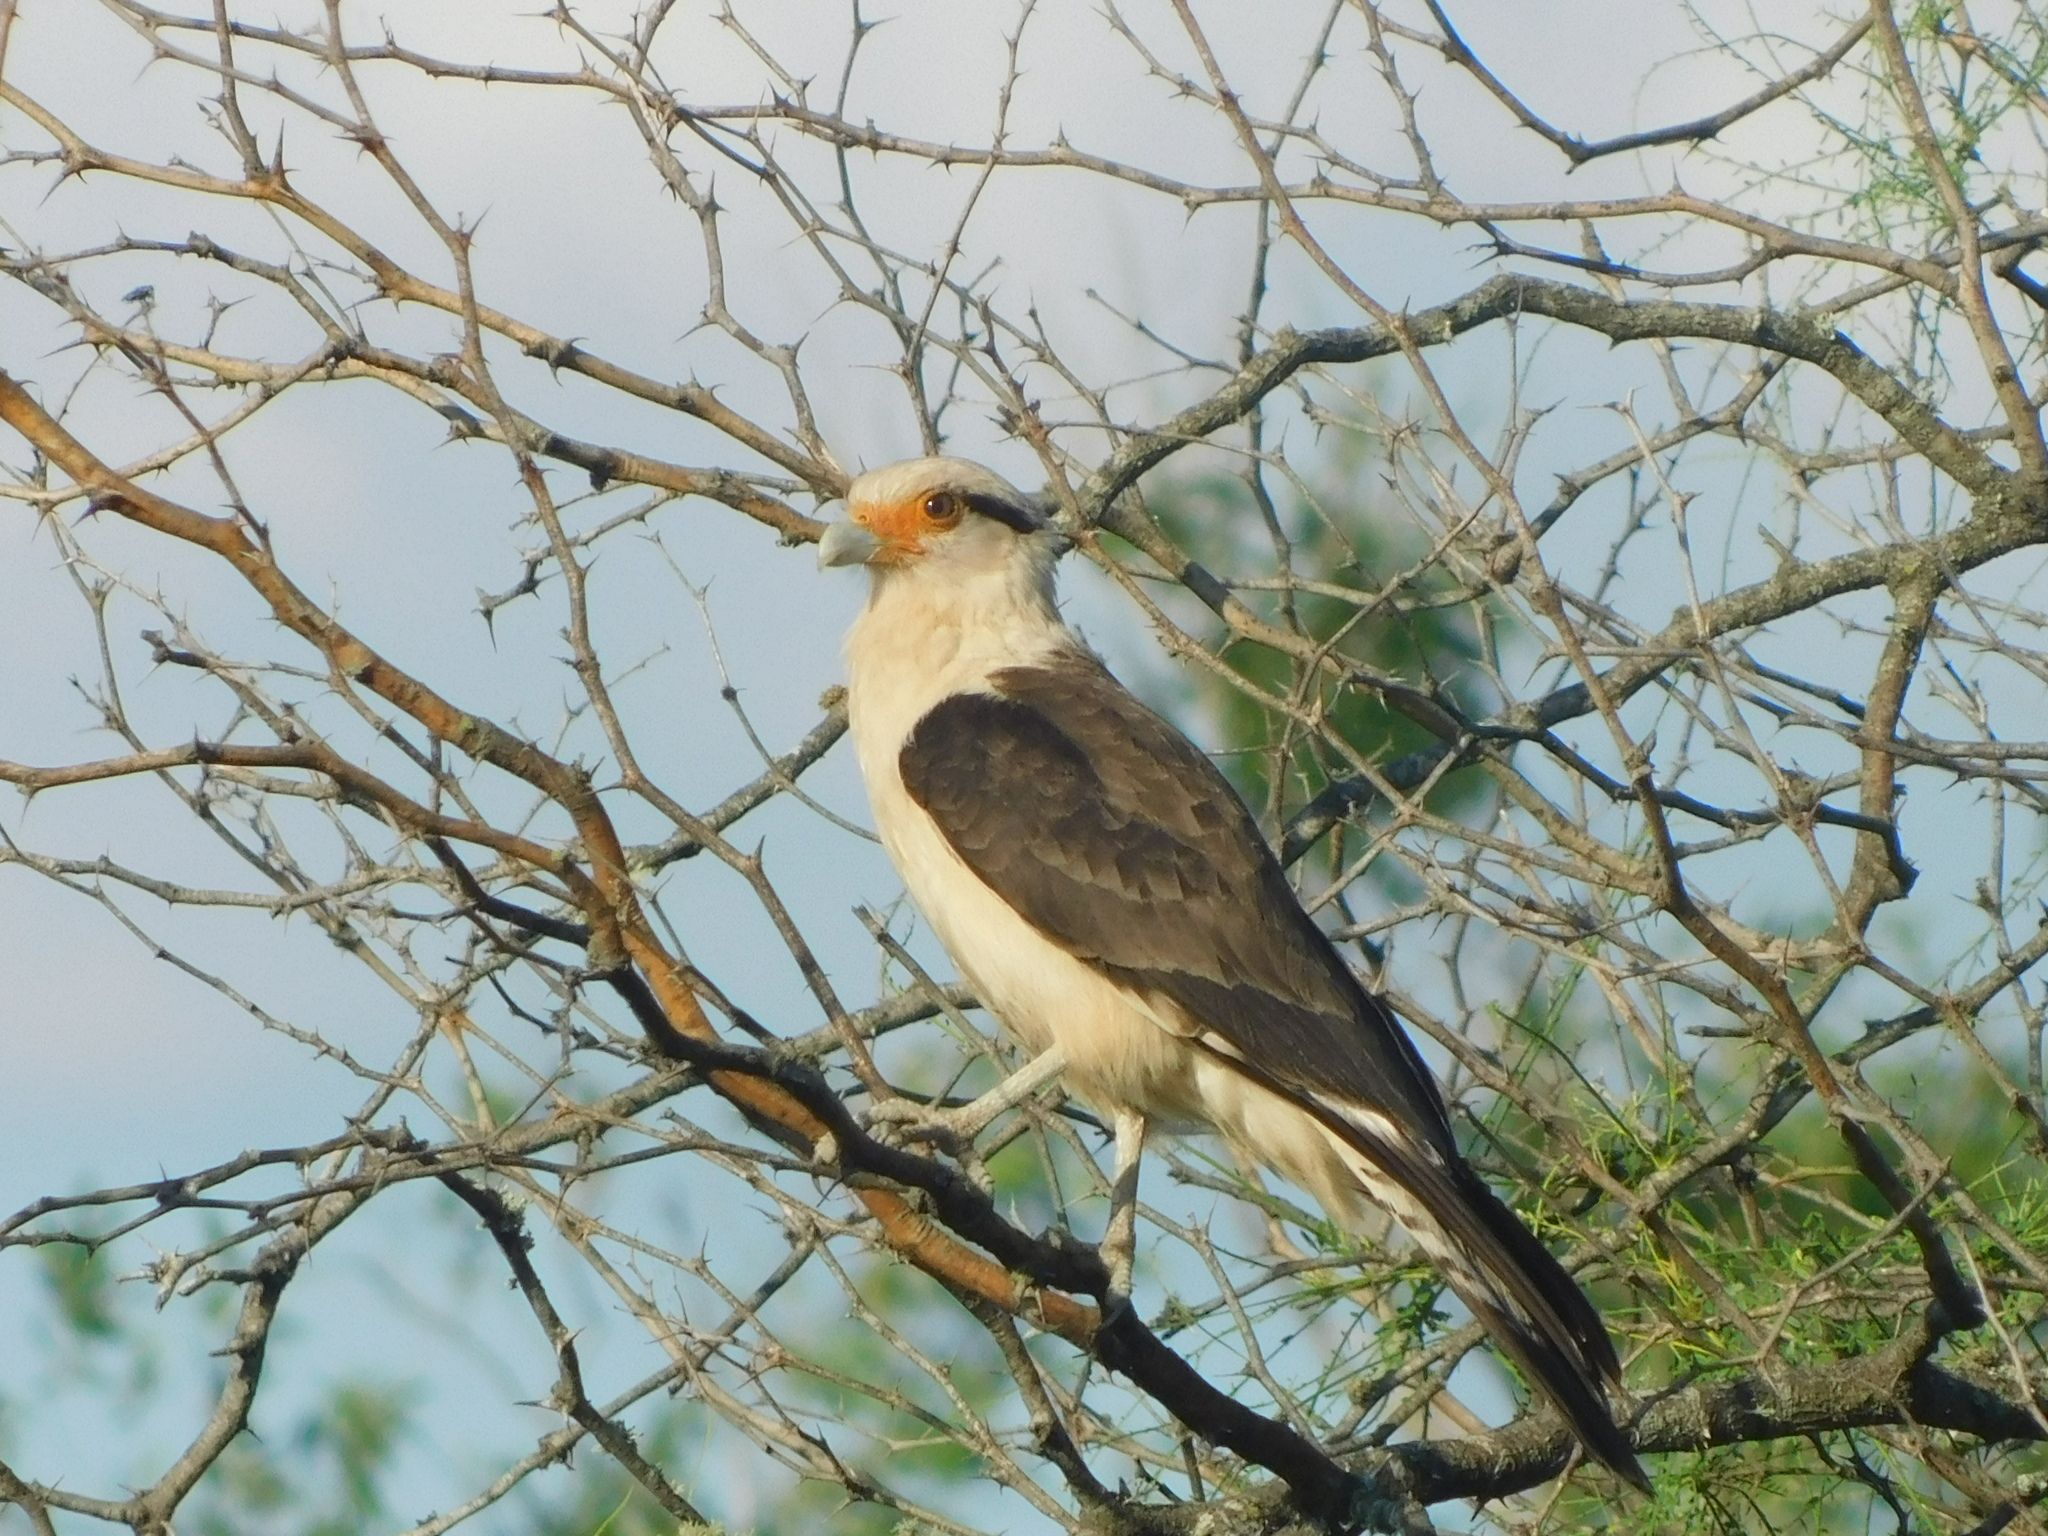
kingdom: Animalia
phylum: Chordata
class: Aves
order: Falconiformes
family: Falconidae
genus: Daptrius
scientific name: Daptrius
